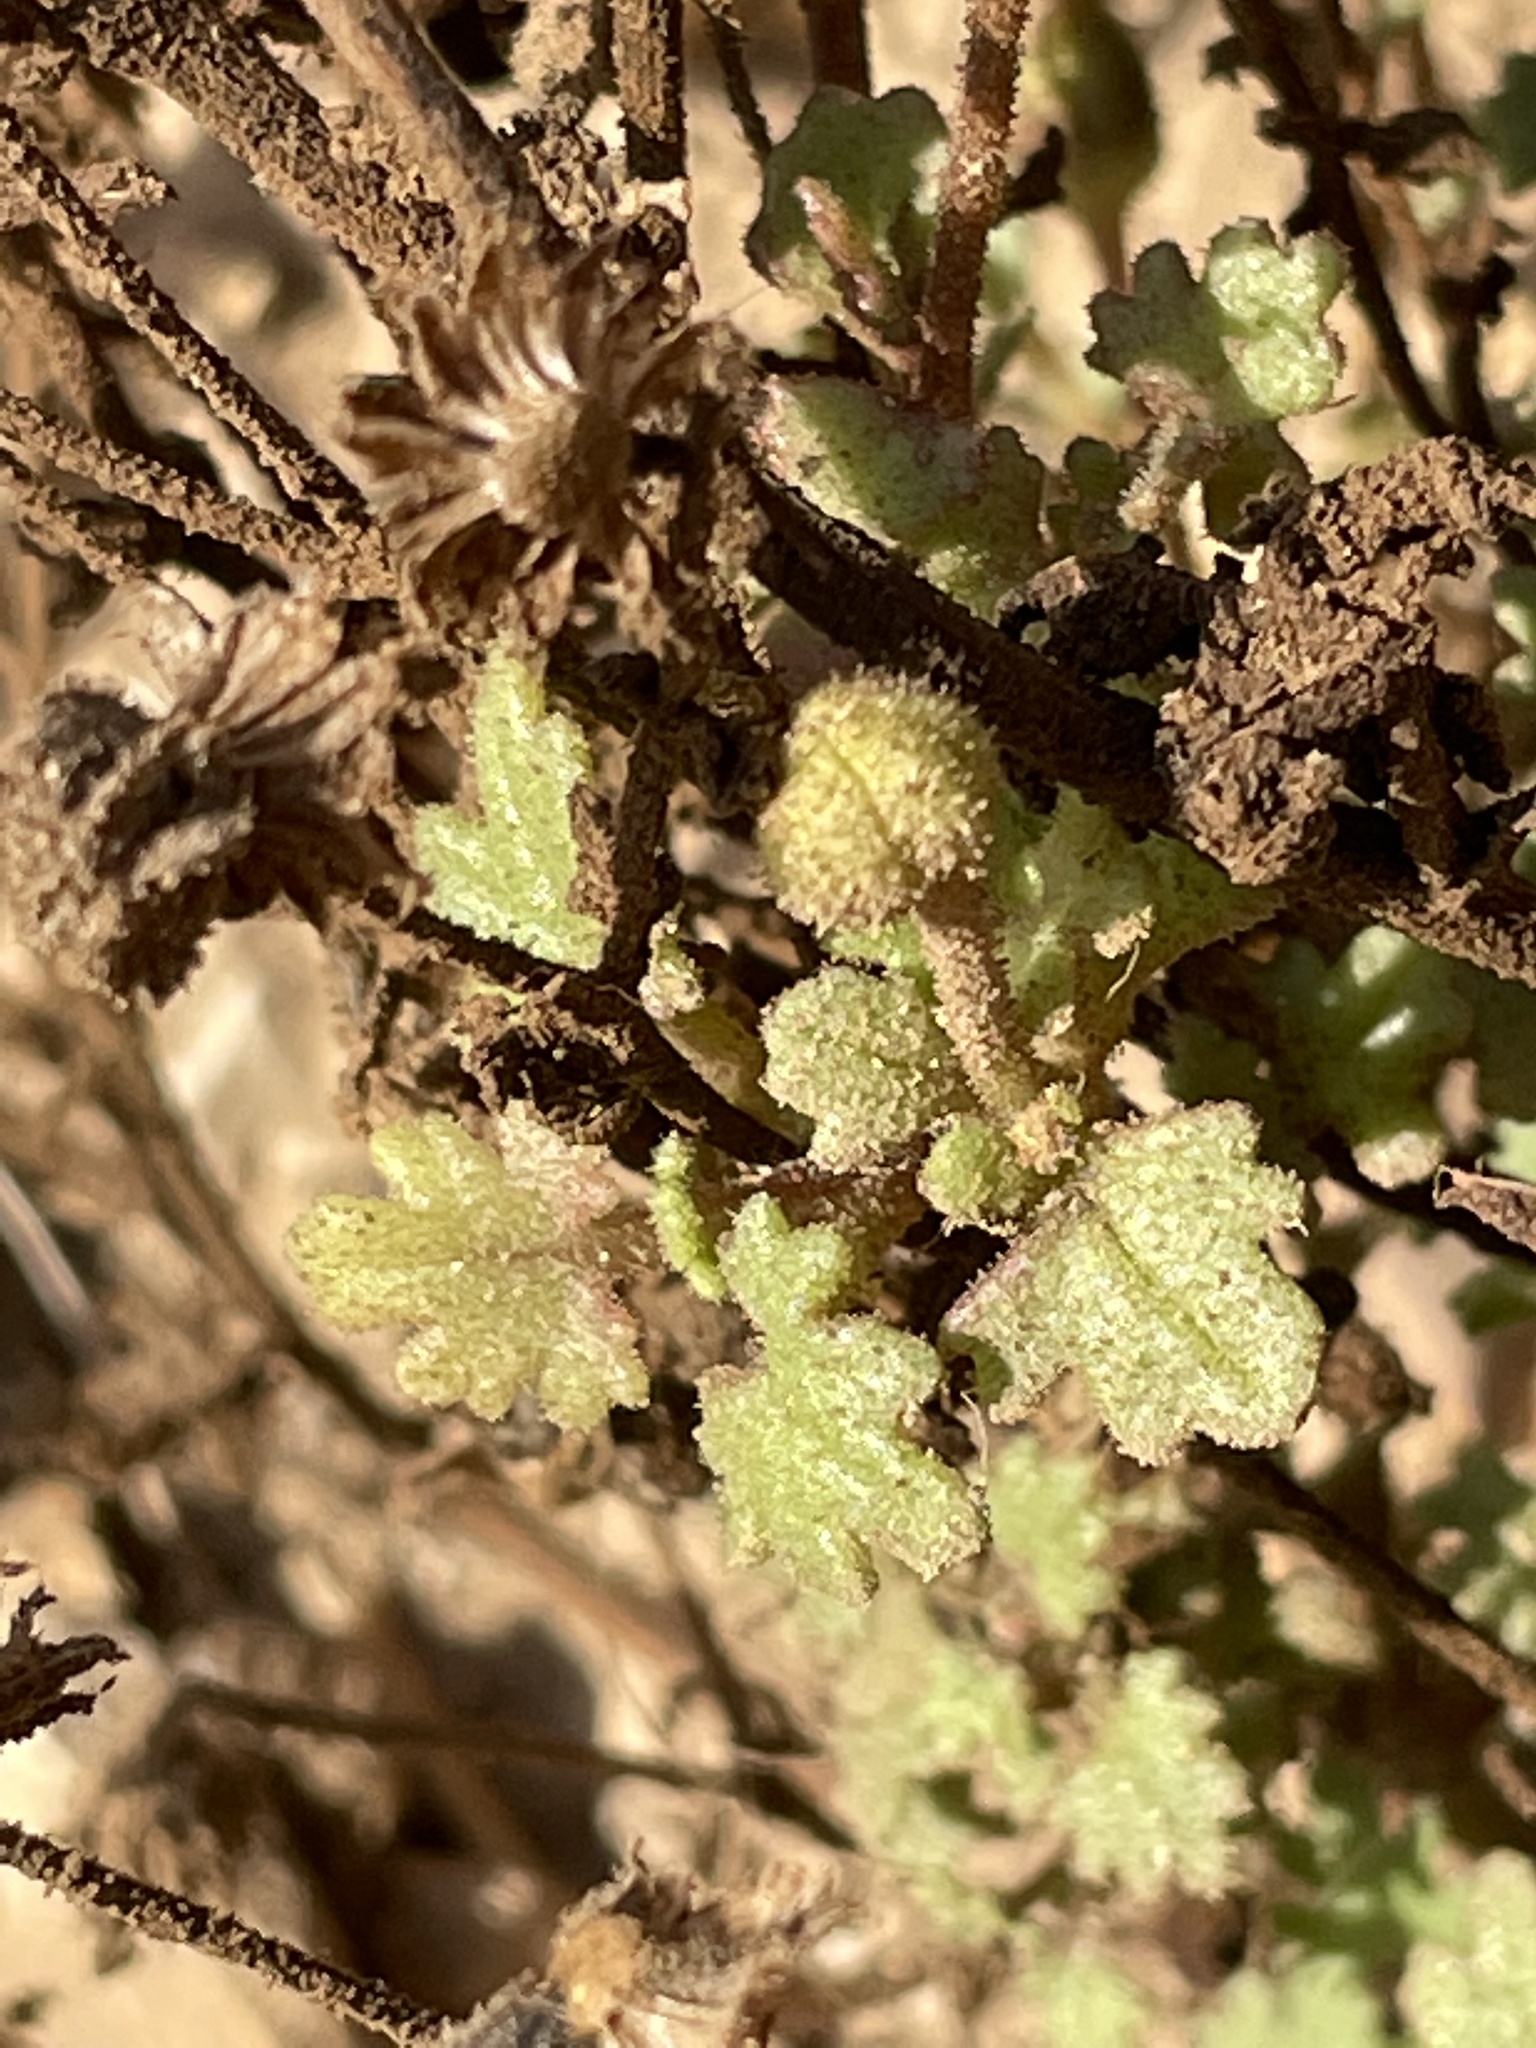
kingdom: Plantae
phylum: Tracheophyta
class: Magnoliopsida
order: Asterales
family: Asteraceae
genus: Laphamia
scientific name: Laphamia emoryi
